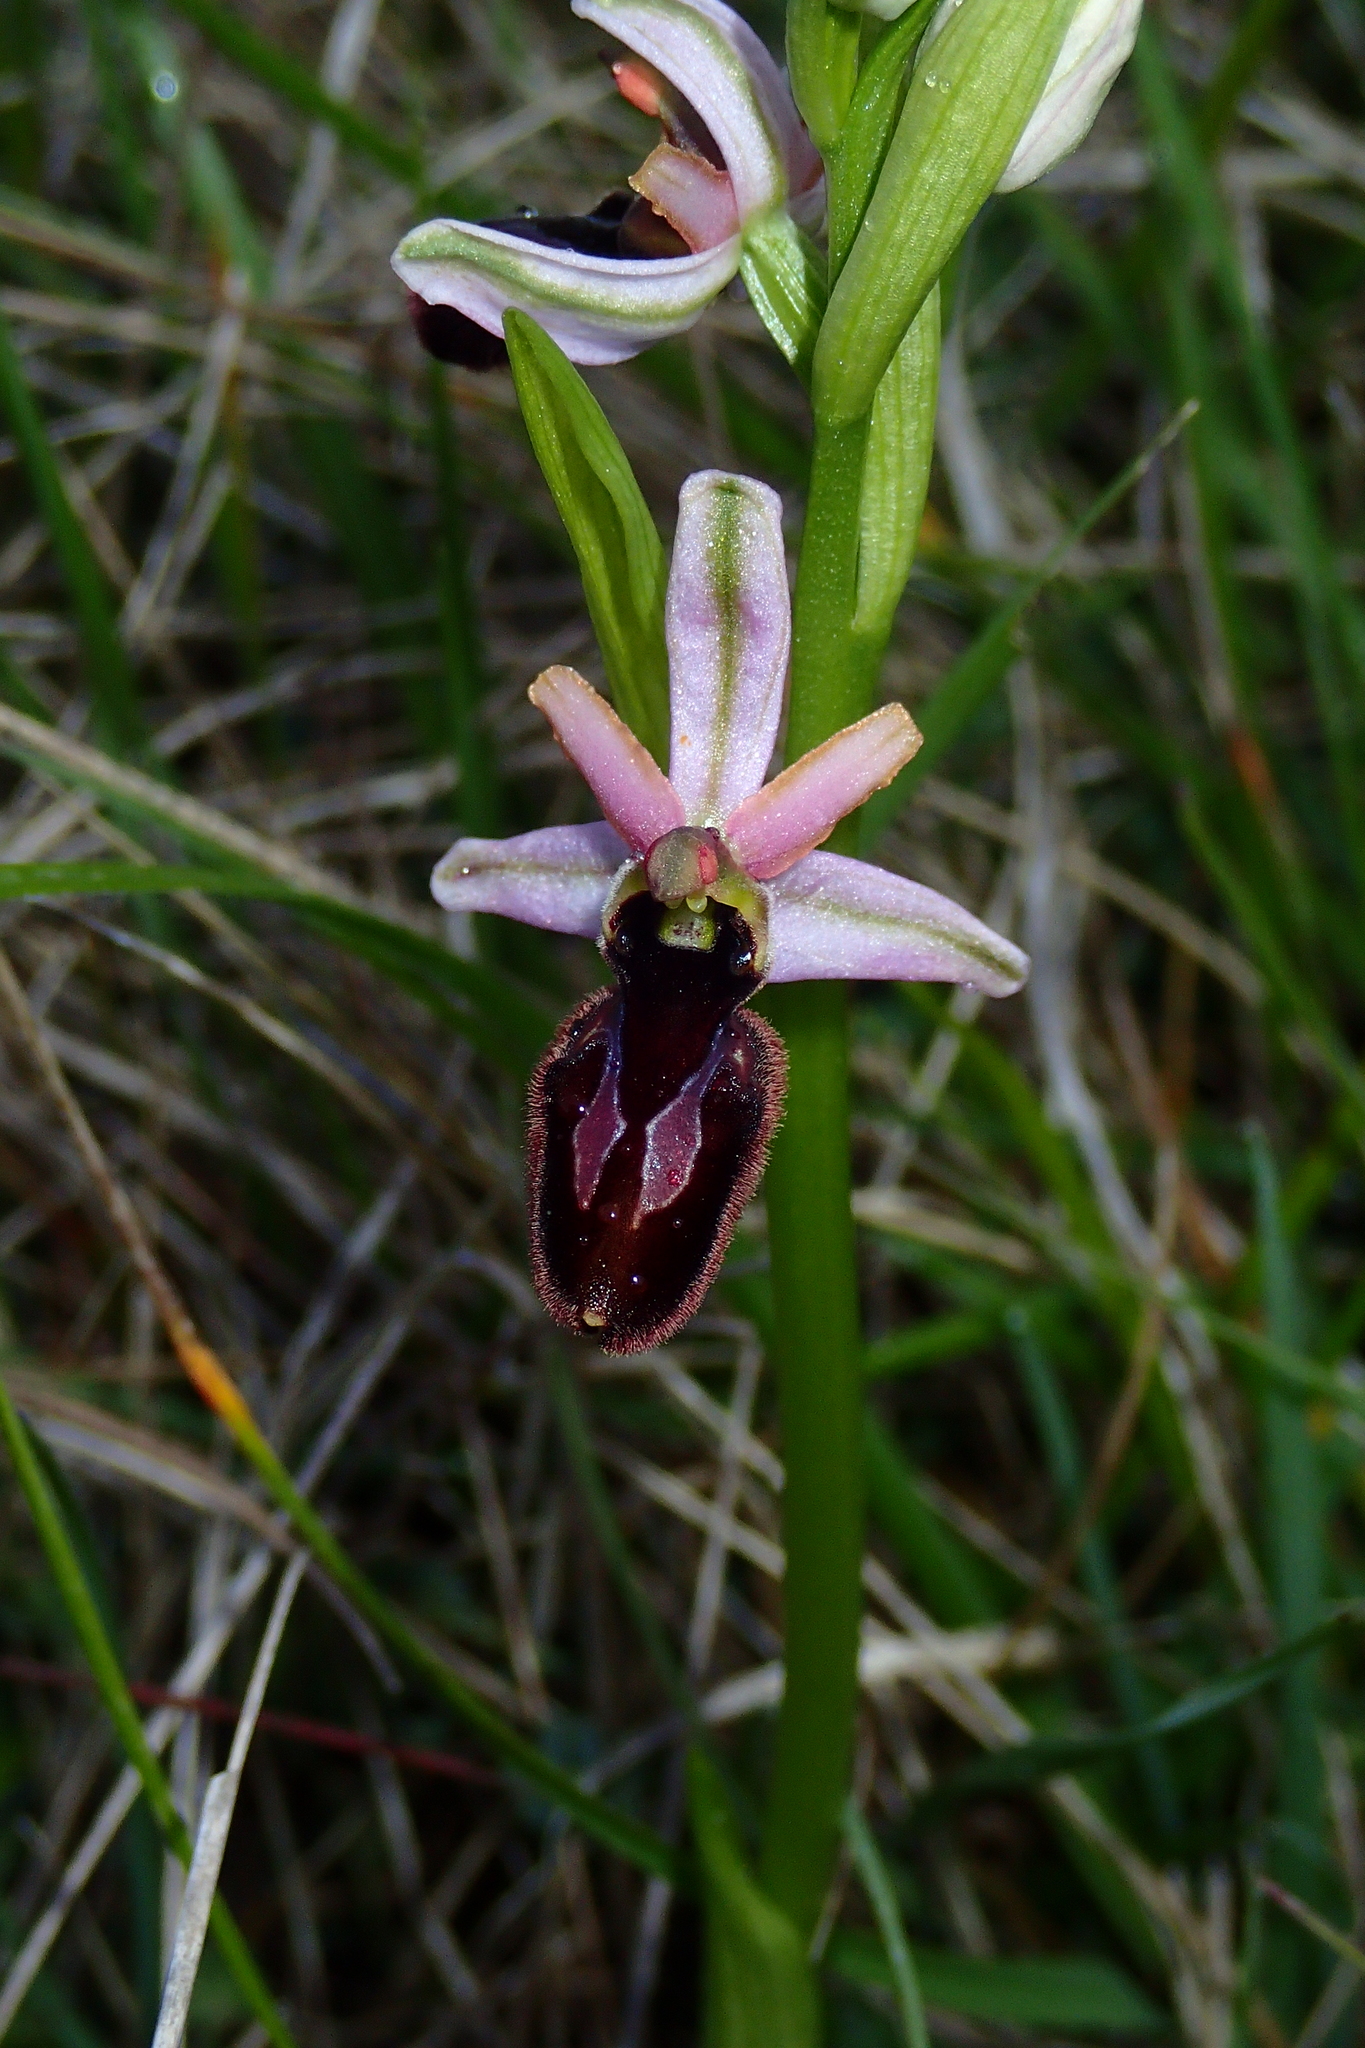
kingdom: Plantae
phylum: Tracheophyta
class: Liliopsida
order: Asparagales
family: Orchidaceae
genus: Ophrys
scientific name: Ophrys flavicans
